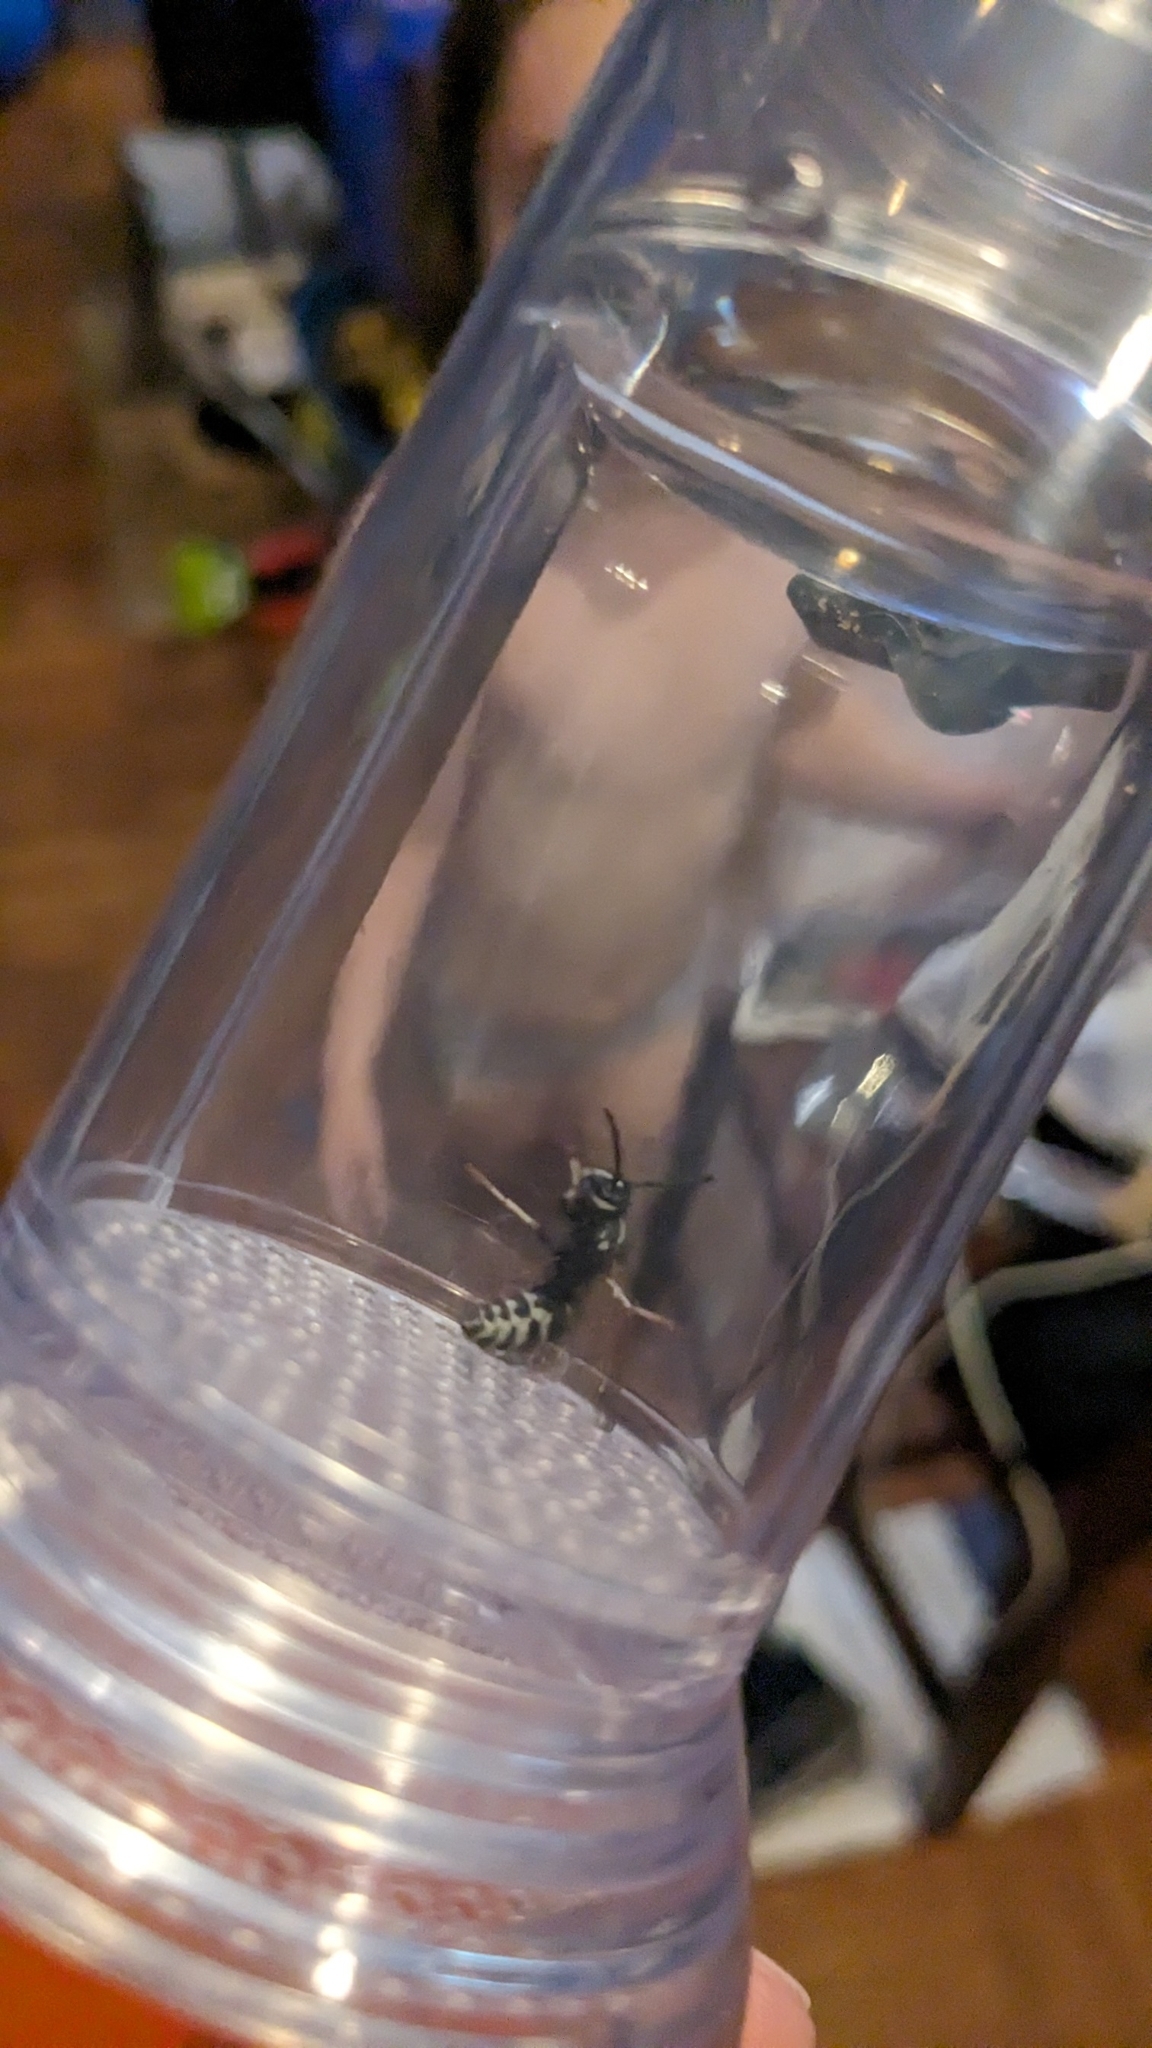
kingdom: Animalia
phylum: Arthropoda
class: Insecta
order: Hymenoptera
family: Vespidae
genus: Vespula
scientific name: Vespula consobrina
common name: Blackjacket
